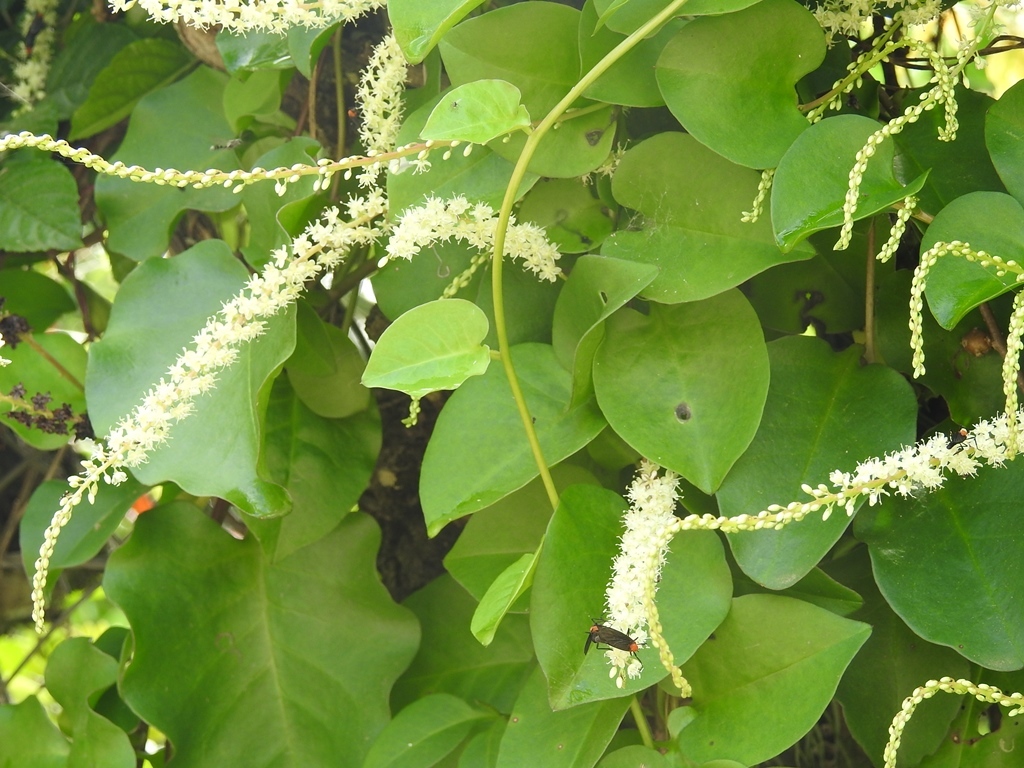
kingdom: Plantae
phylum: Tracheophyta
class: Magnoliopsida
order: Caryophyllales
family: Basellaceae
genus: Anredera
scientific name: Anredera cordifolia
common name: Heartleaf madeiravine
